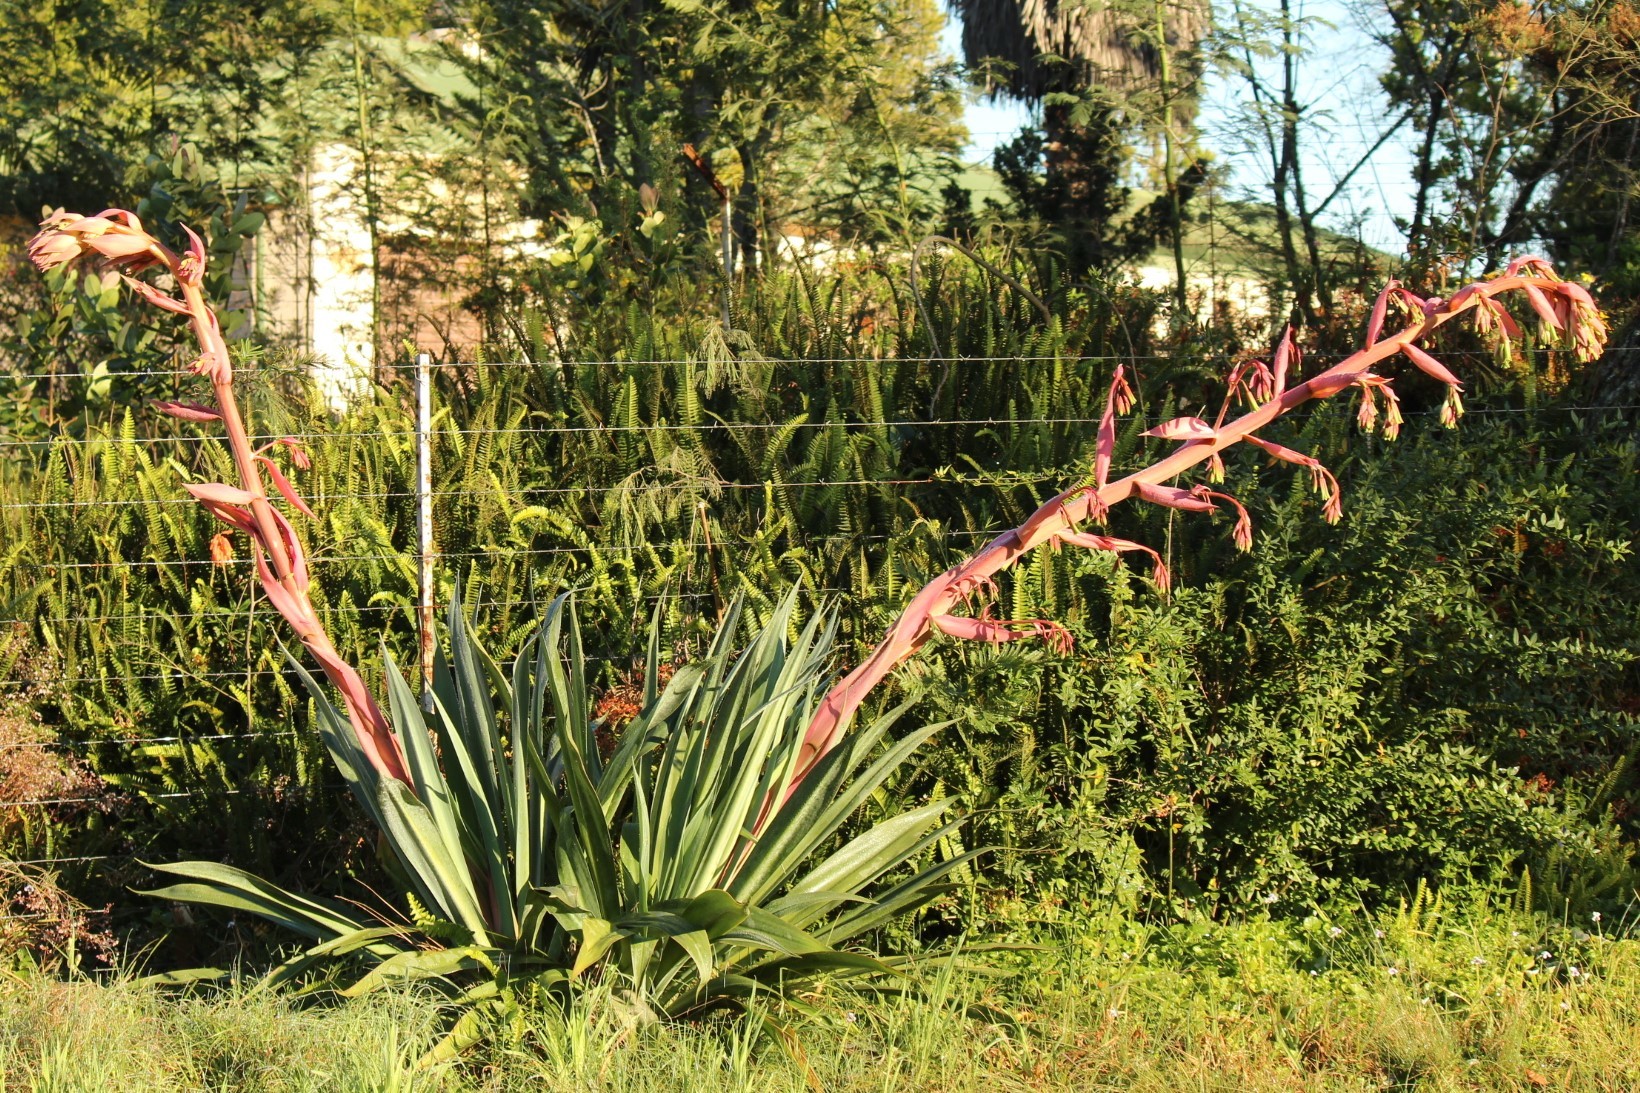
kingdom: Plantae
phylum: Tracheophyta
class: Liliopsida
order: Asparagales
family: Asparagaceae
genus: Beschorneria
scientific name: Beschorneria yuccoides
